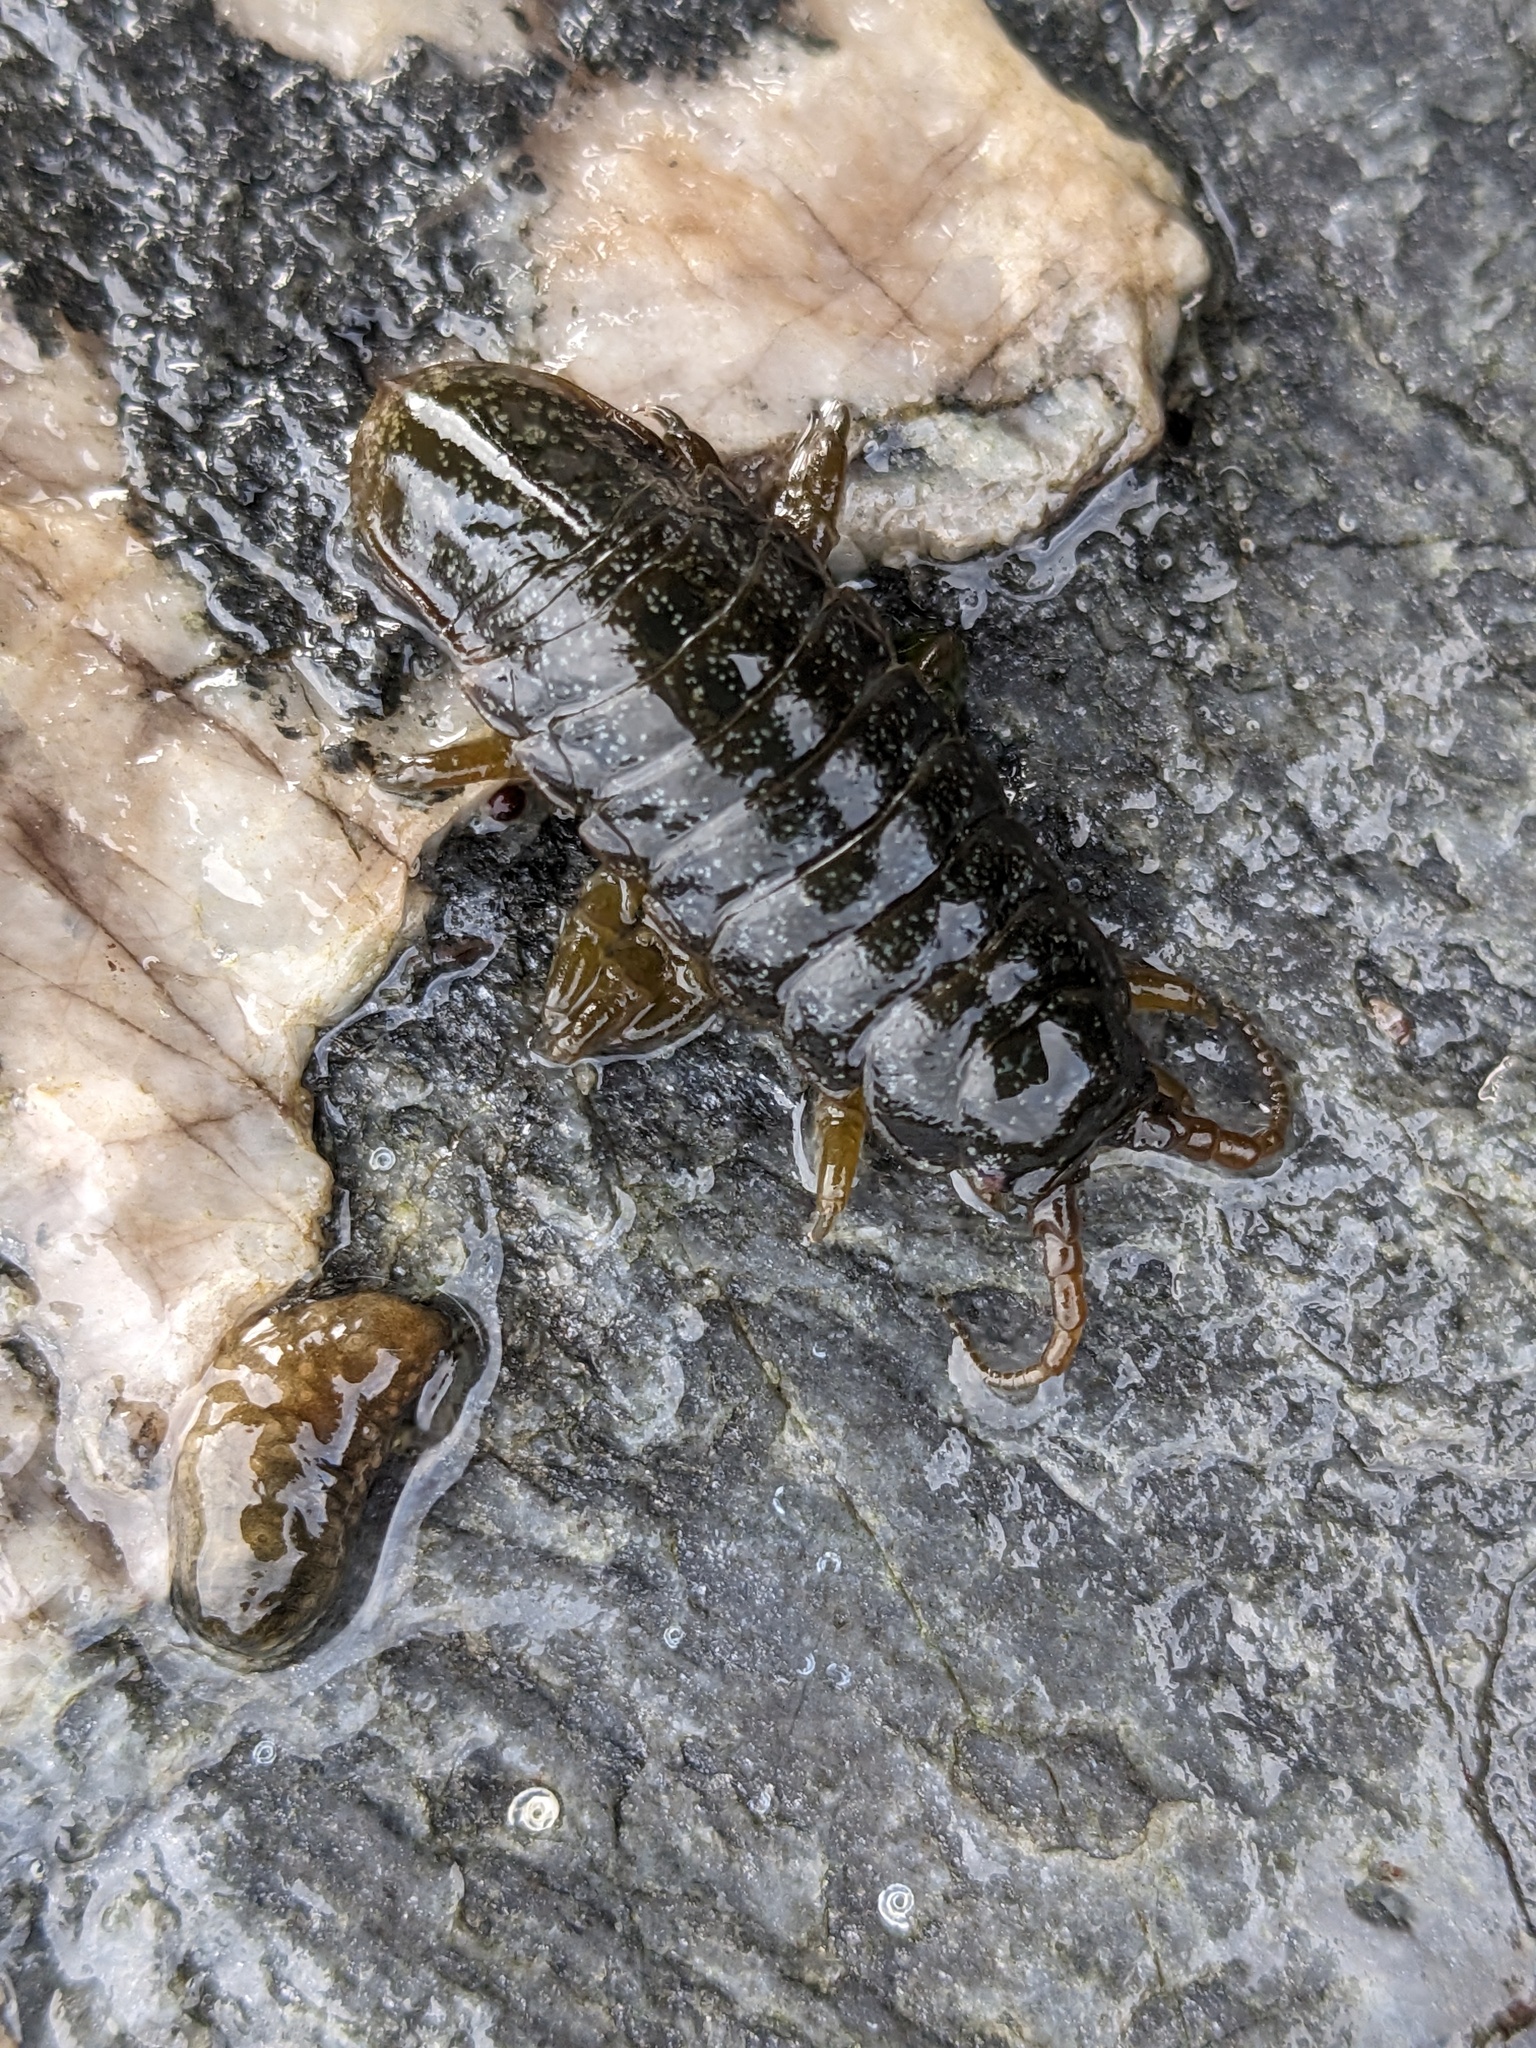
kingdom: Animalia
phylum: Arthropoda
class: Malacostraca
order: Isopoda
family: Idoteidae
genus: Pentidotea
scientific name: Pentidotea wosnesenskii
